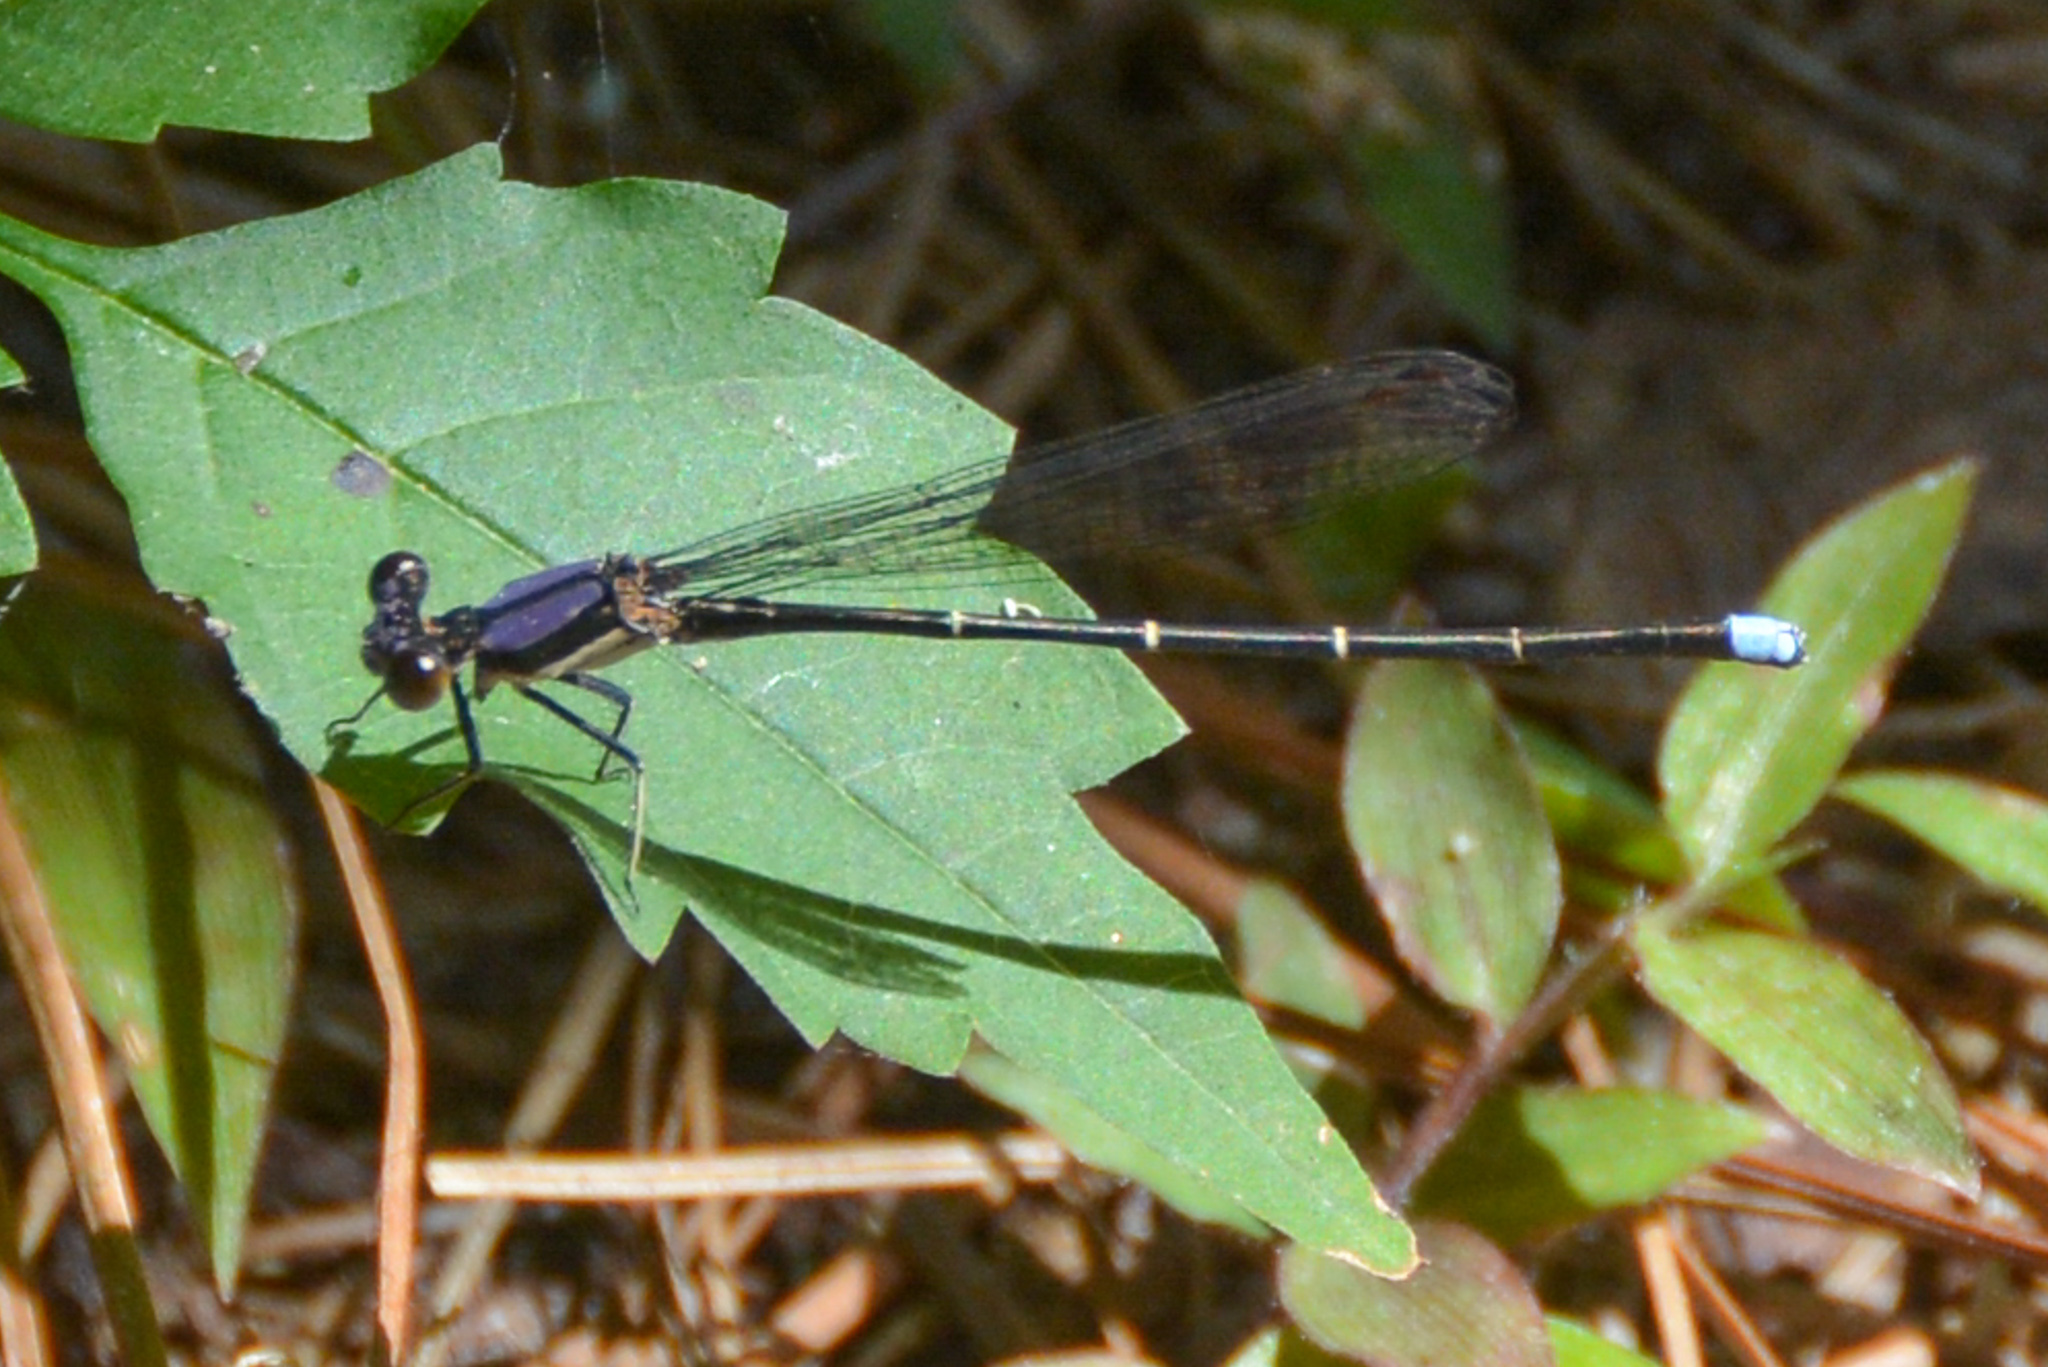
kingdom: Animalia
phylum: Arthropoda
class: Insecta
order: Odonata
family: Coenagrionidae
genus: Argia
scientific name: Argia tibialis
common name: Blue-tipped dancer
